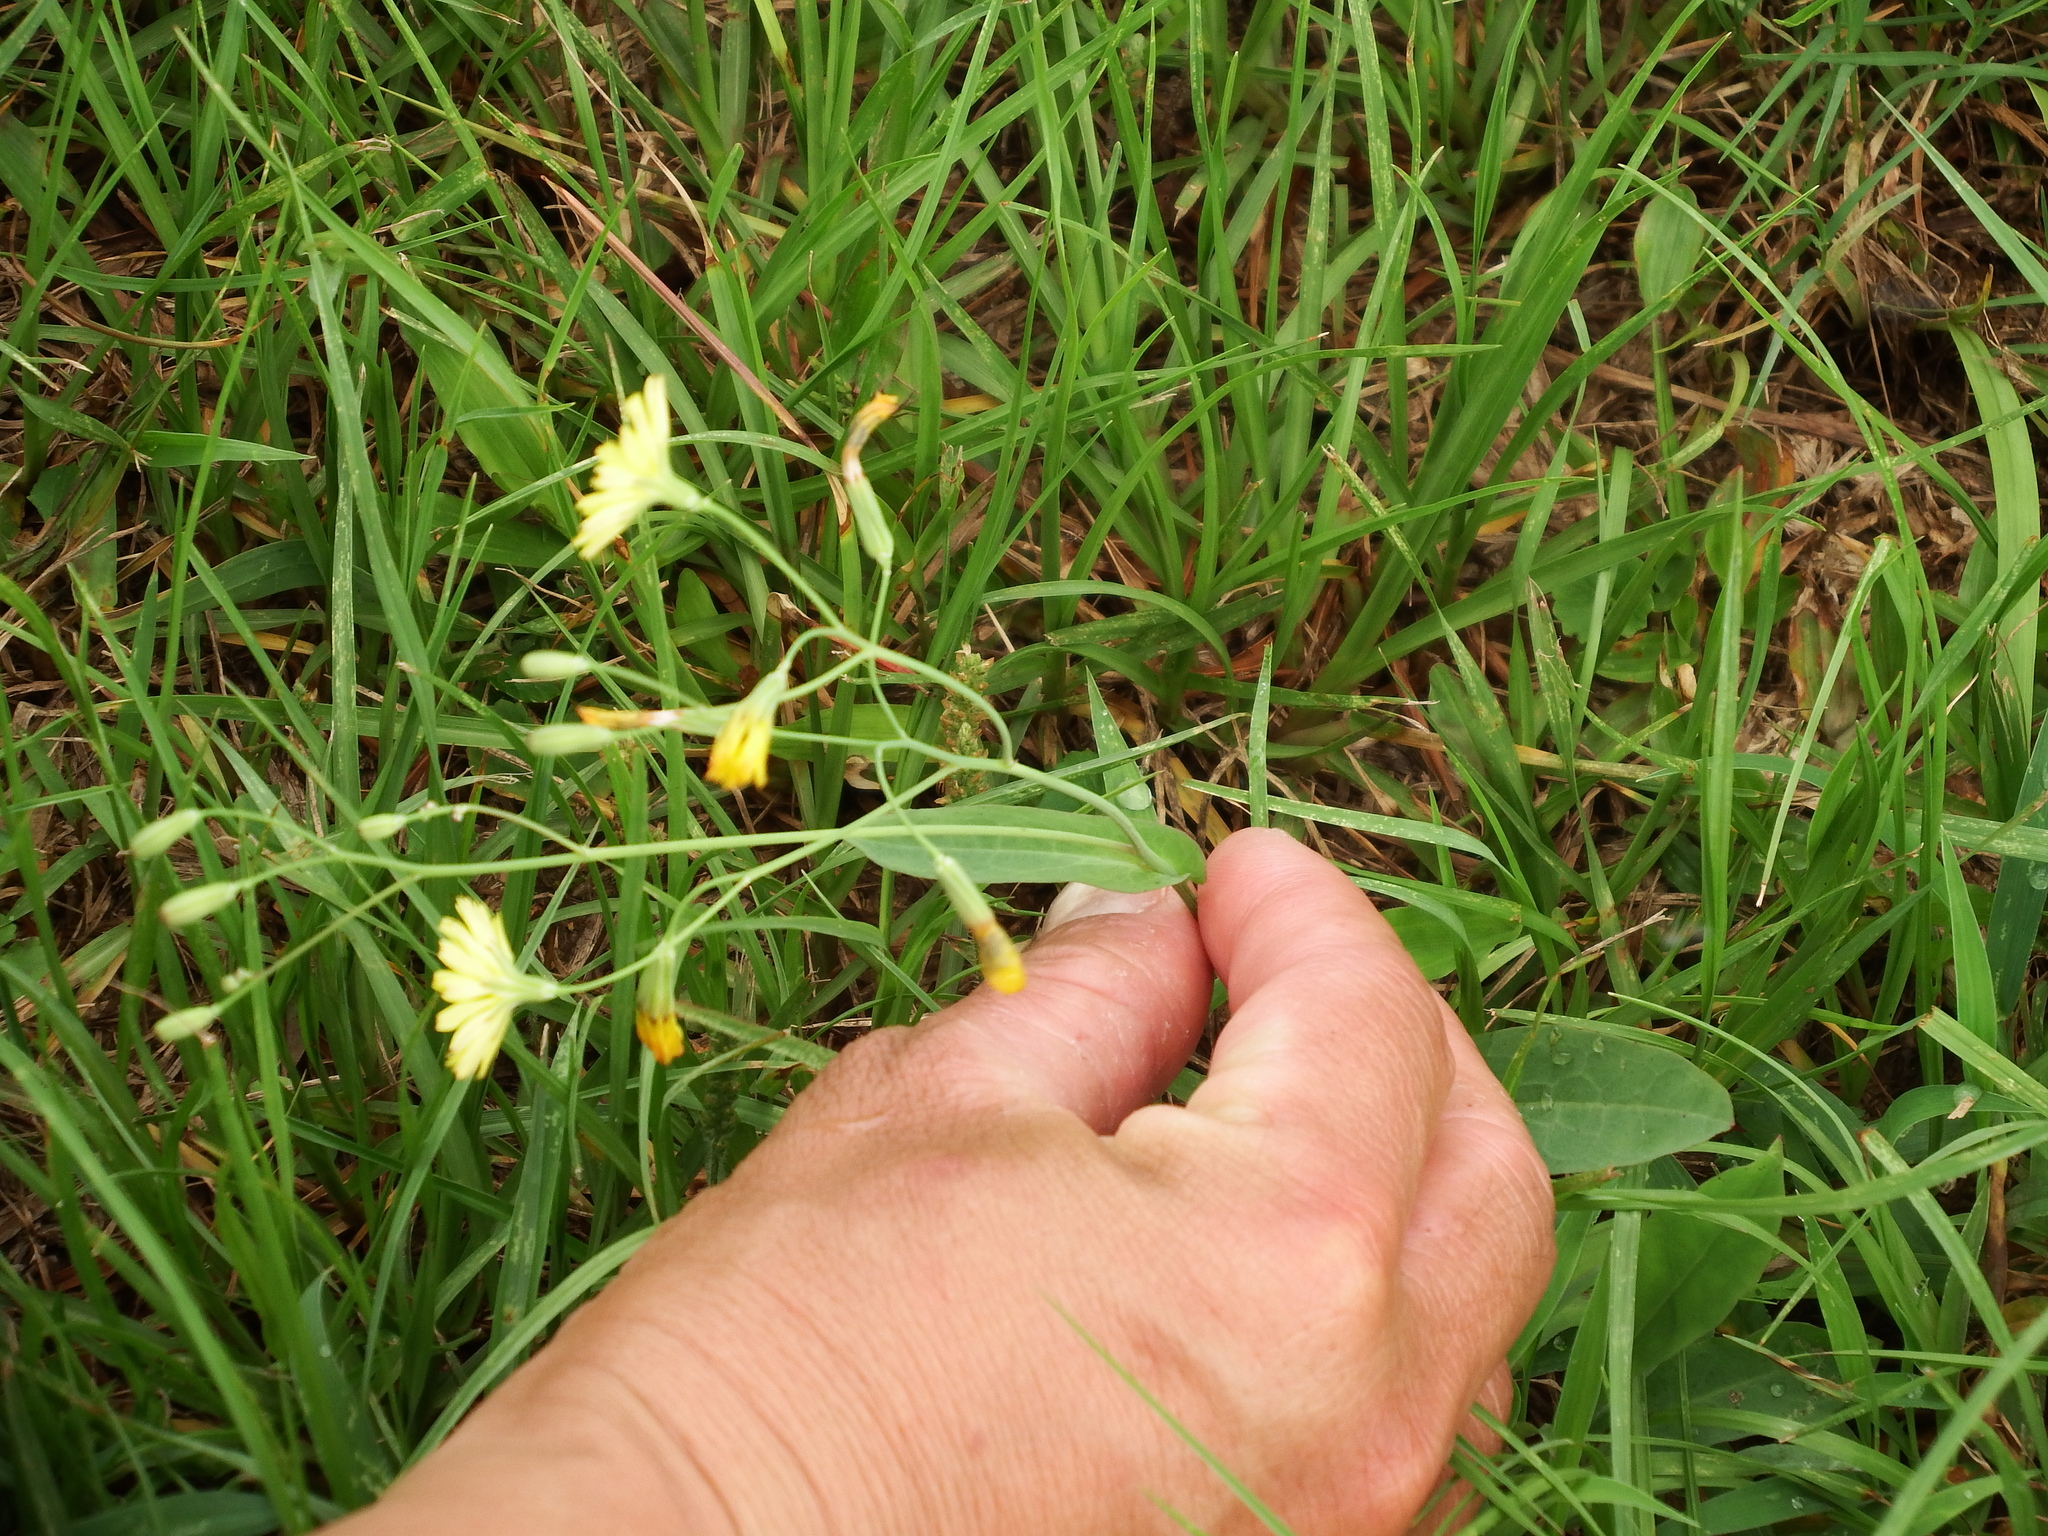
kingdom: Plantae
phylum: Tracheophyta
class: Magnoliopsida
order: Asterales
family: Asteraceae
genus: Ixeris
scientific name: Ixeris chinensis
